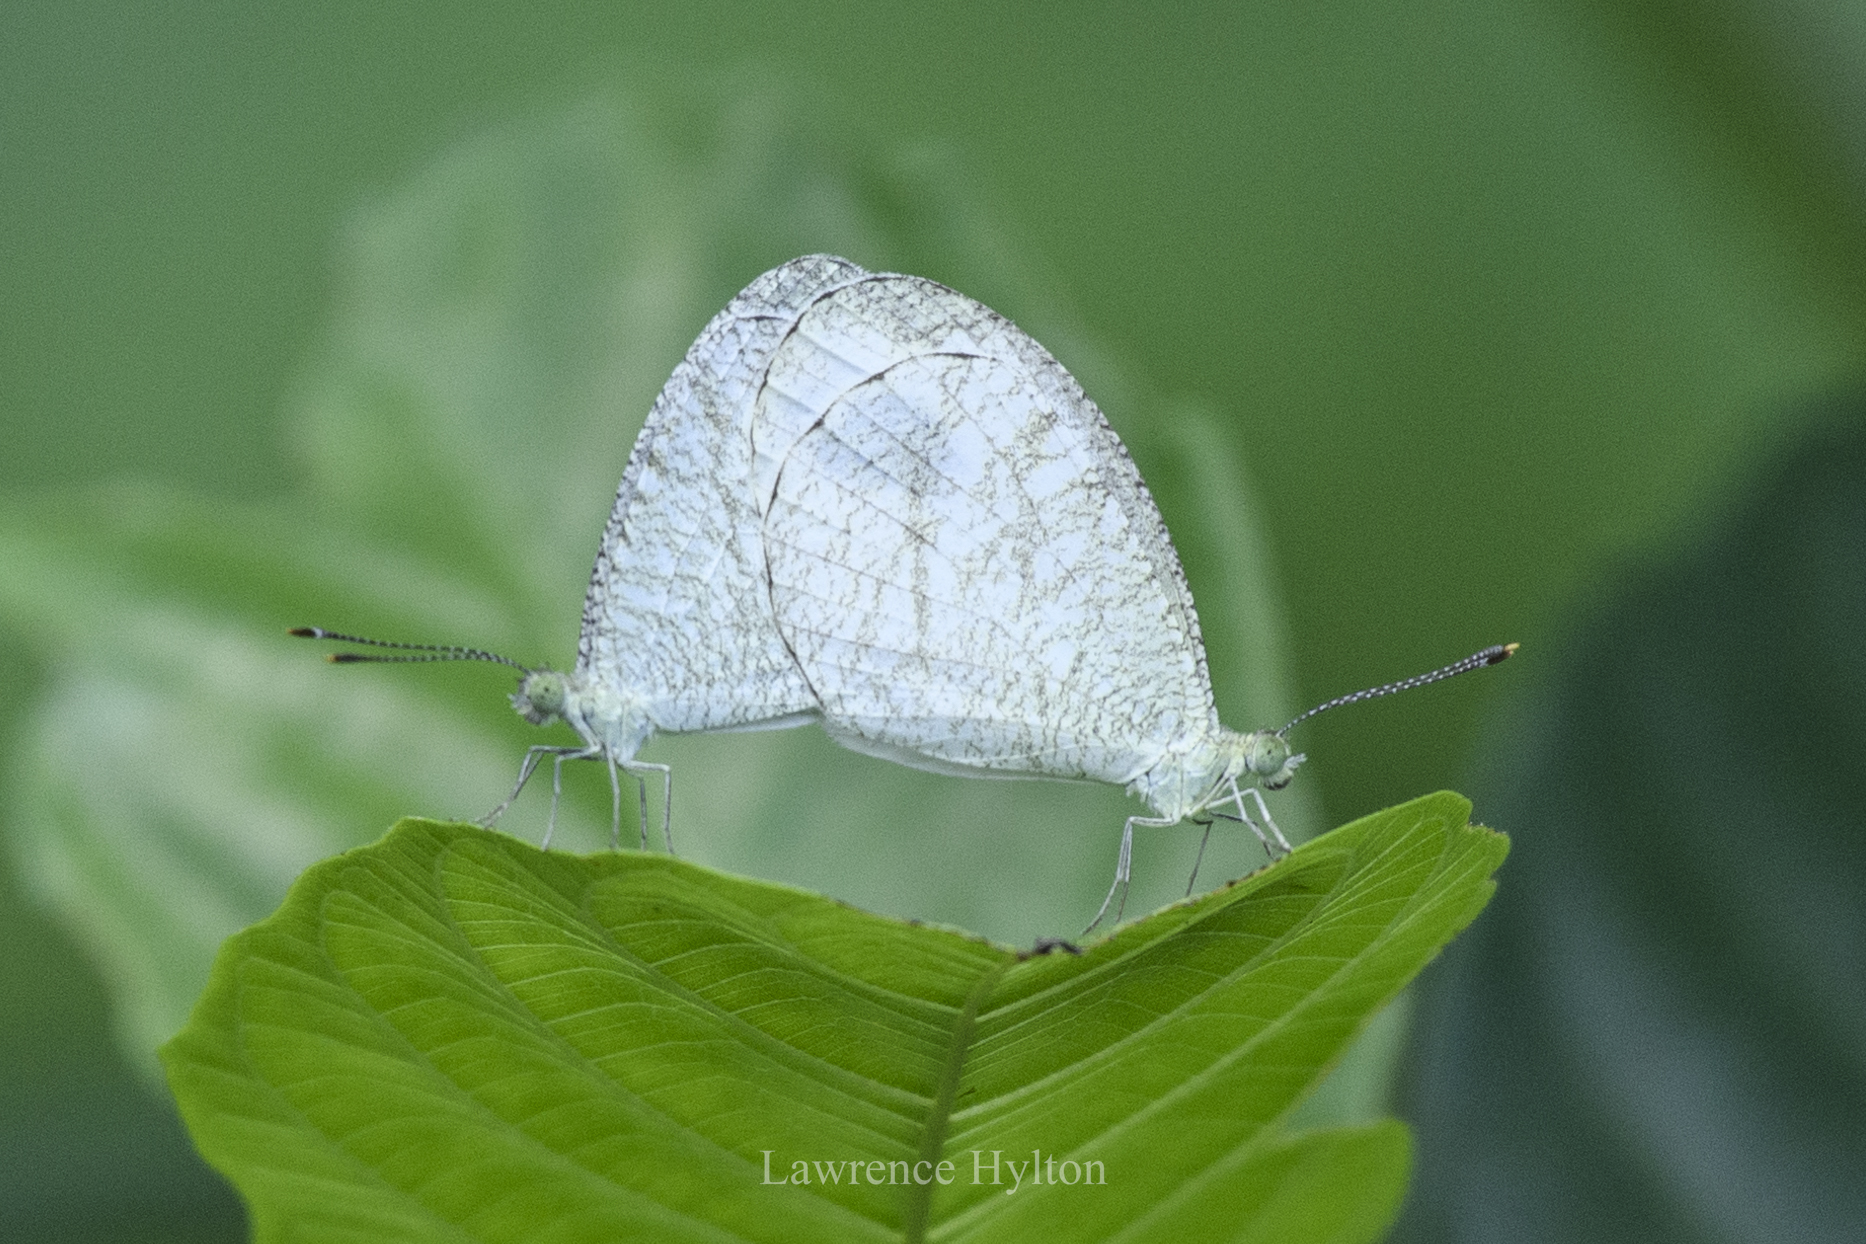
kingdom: Animalia
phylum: Arthropoda
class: Insecta
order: Lepidoptera
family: Pieridae
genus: Leptosia
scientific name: Leptosia nina
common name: Psyche
